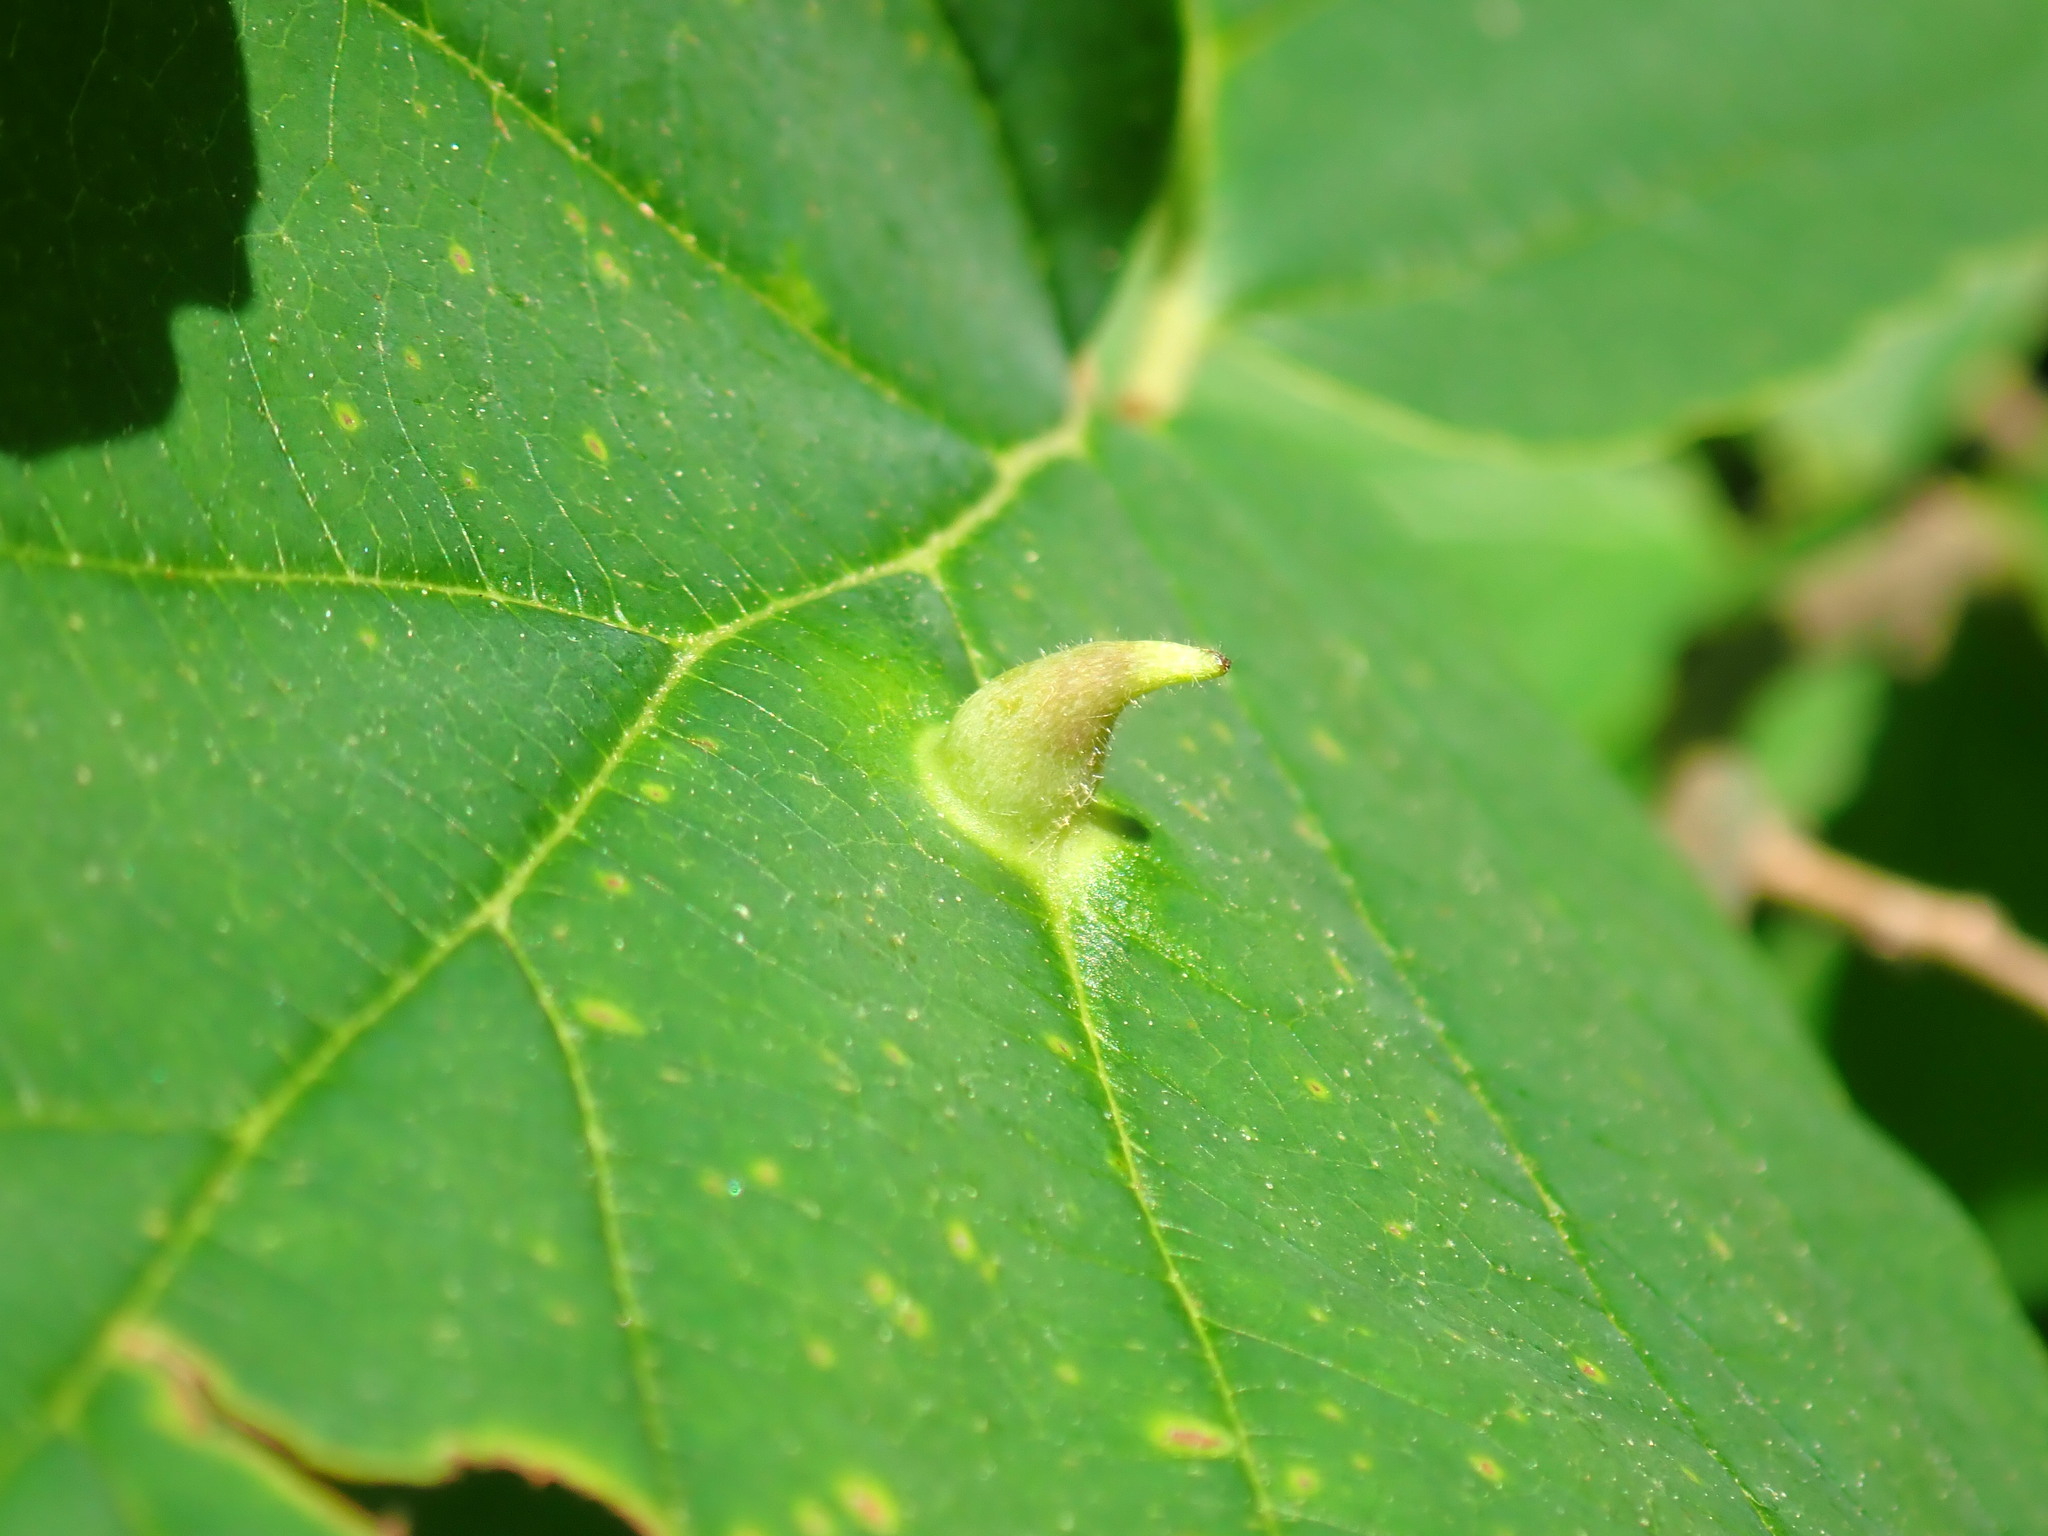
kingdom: Animalia
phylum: Arthropoda
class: Insecta
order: Hemiptera
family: Aphididae
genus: Hormaphis
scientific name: Hormaphis hamamelidis
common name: Witch-hazel cone gall aphid
